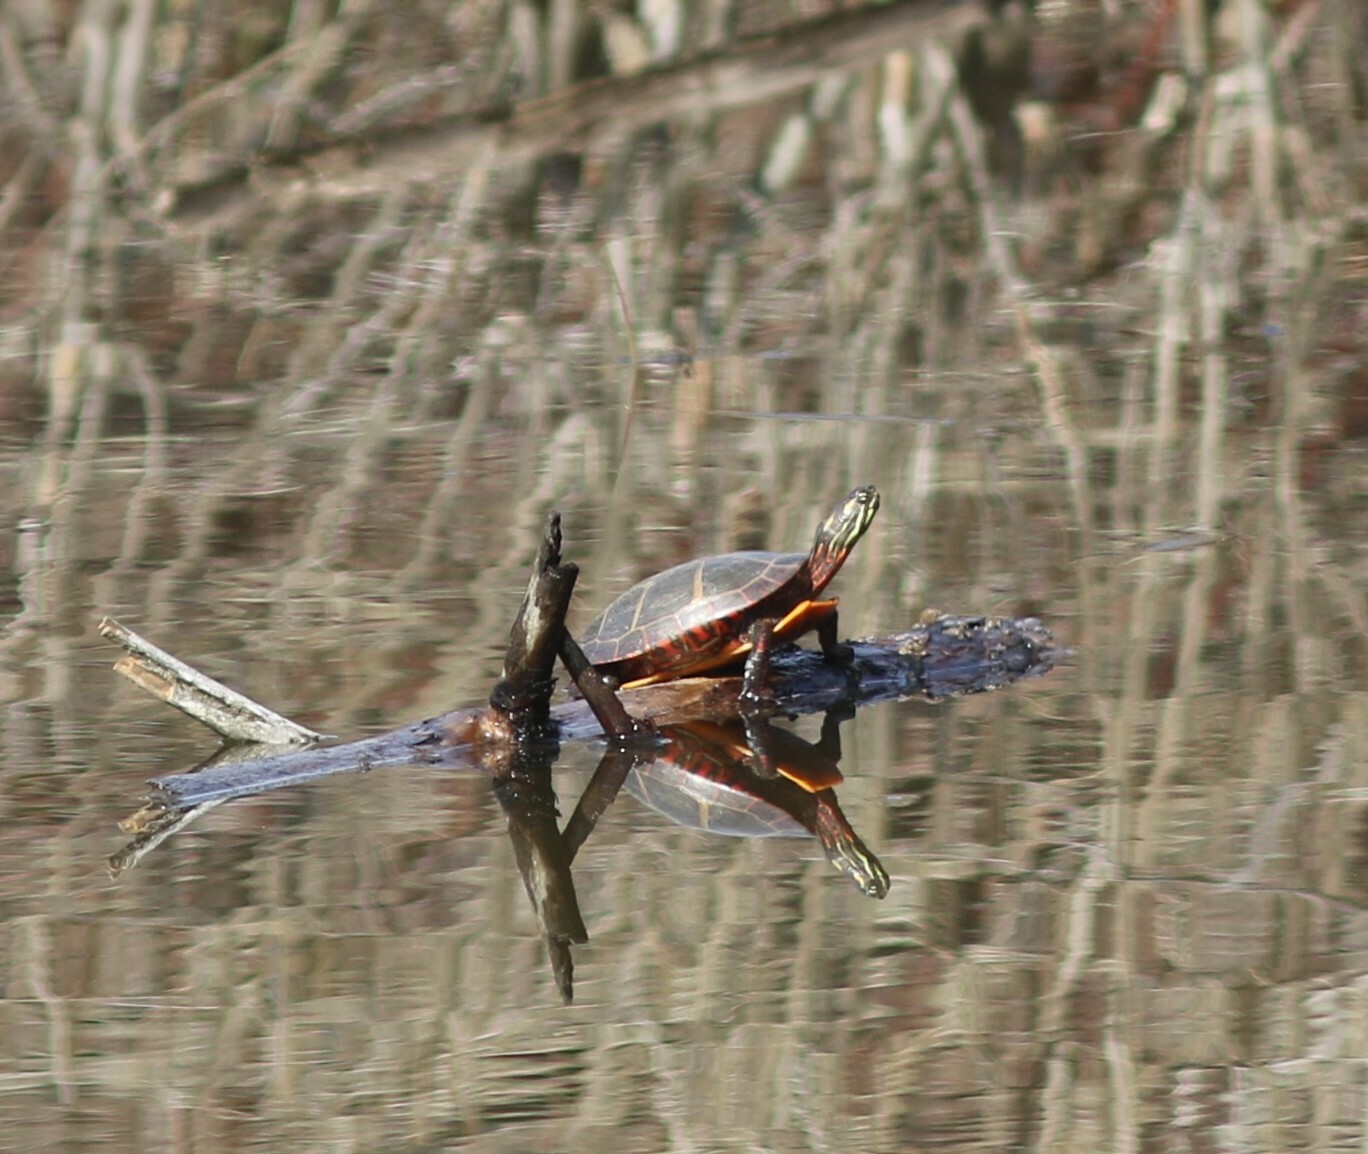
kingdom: Animalia
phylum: Chordata
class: Testudines
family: Emydidae
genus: Chrysemys
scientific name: Chrysemys picta
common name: Painted turtle
